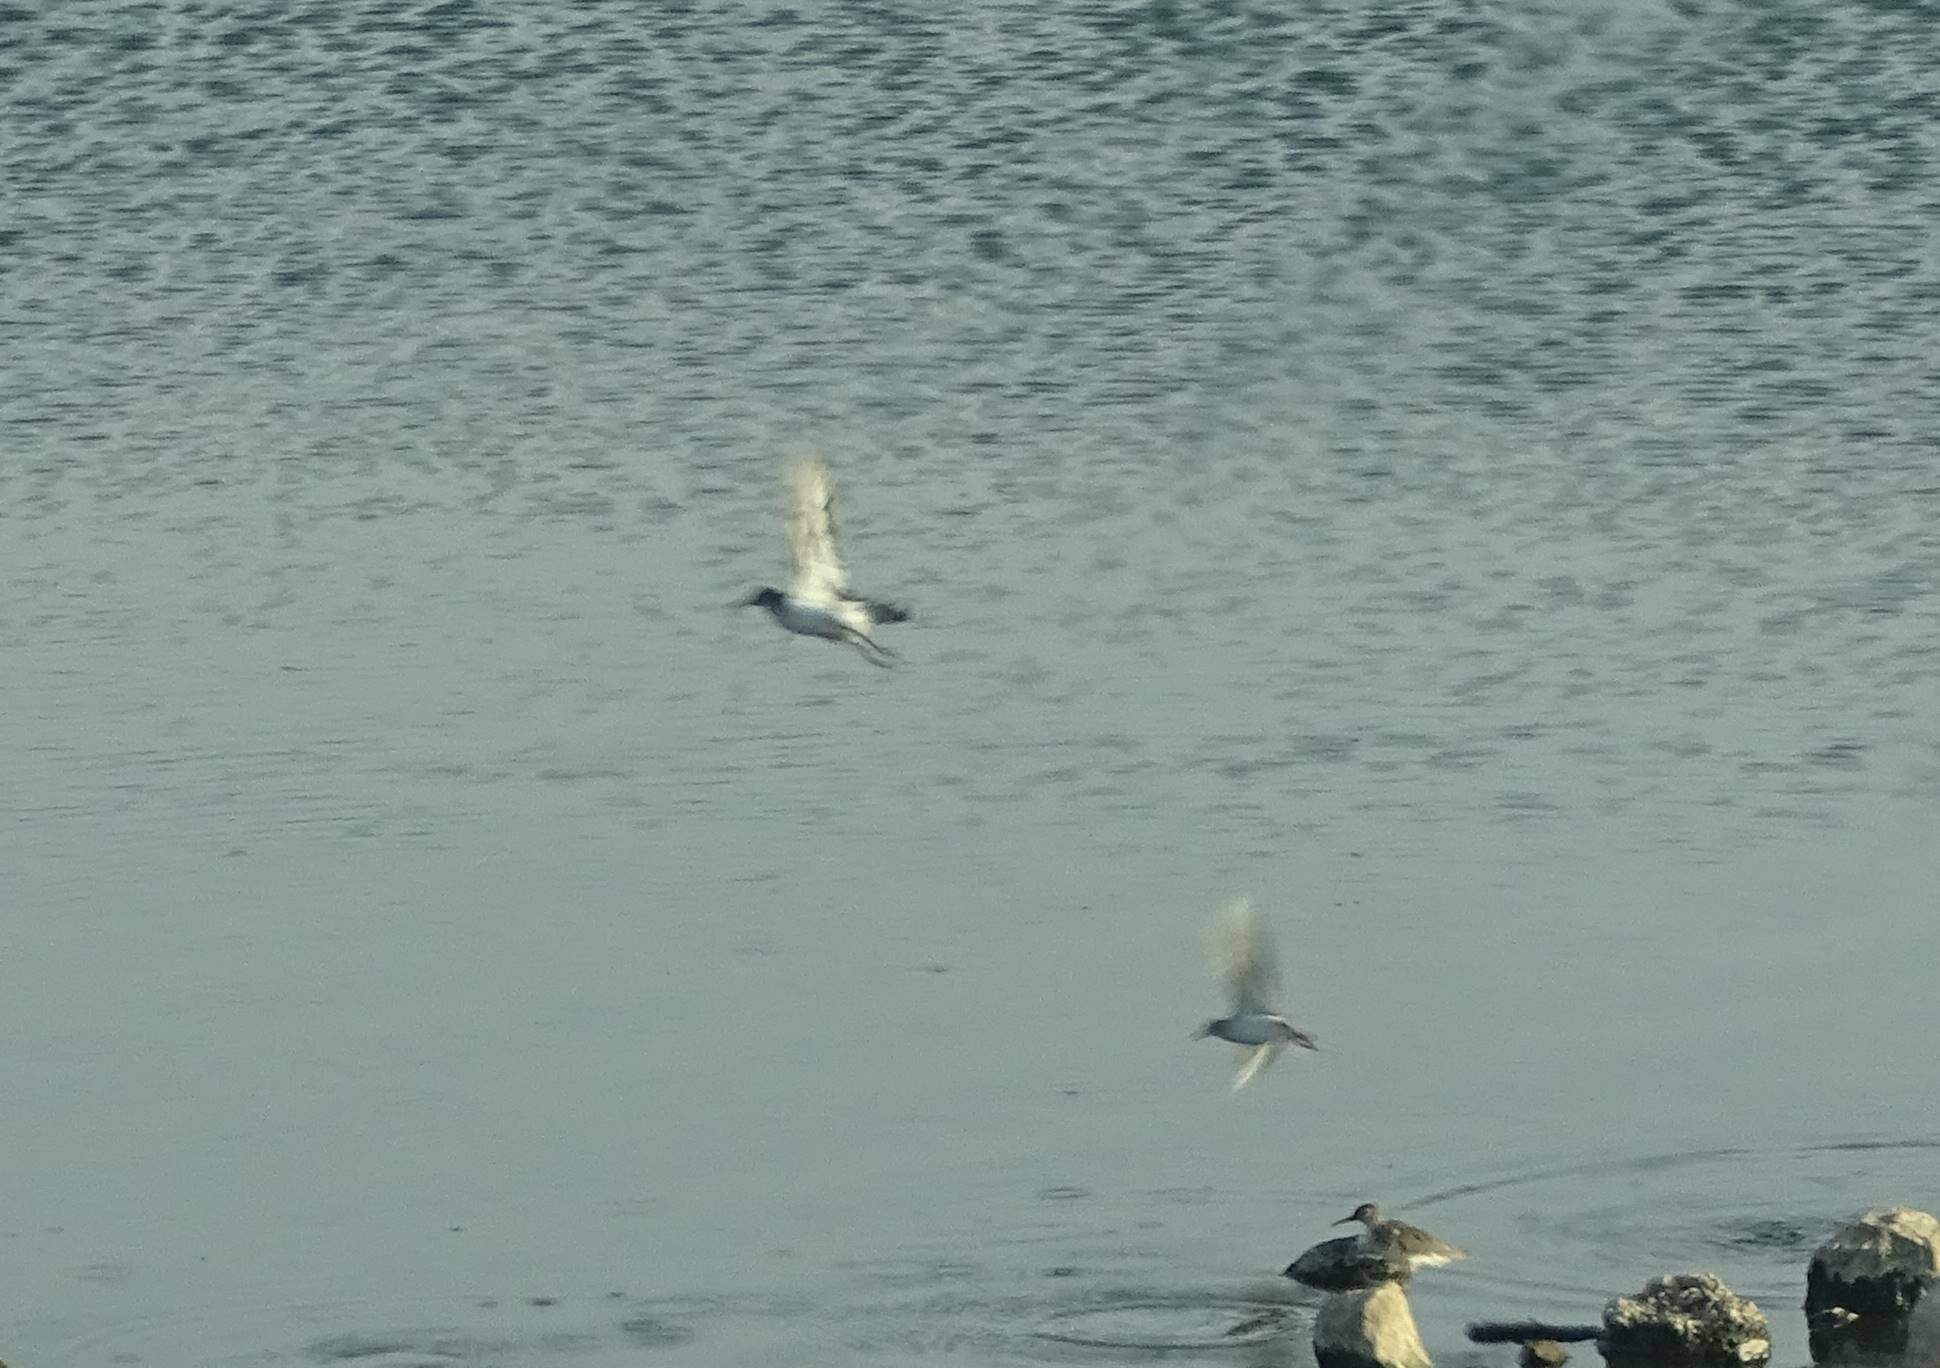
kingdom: Animalia
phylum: Chordata
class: Aves
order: Charadriiformes
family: Scolopacidae
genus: Actitis
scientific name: Actitis hypoleucos
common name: Common sandpiper
